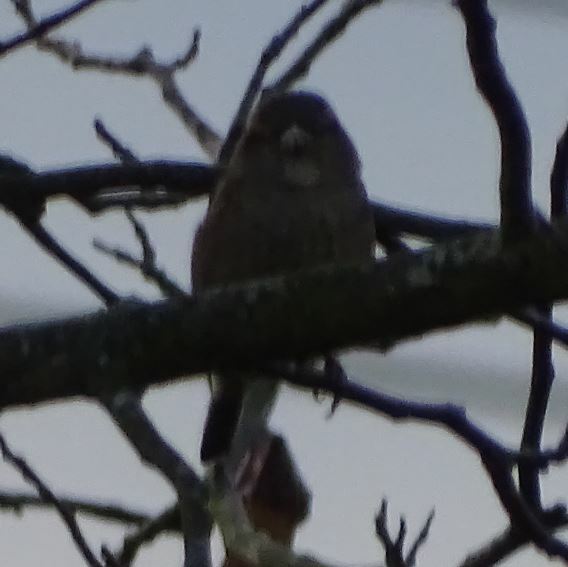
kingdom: Animalia
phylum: Chordata
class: Aves
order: Passeriformes
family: Passeridae
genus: Passer
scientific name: Passer domesticus
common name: House sparrow
